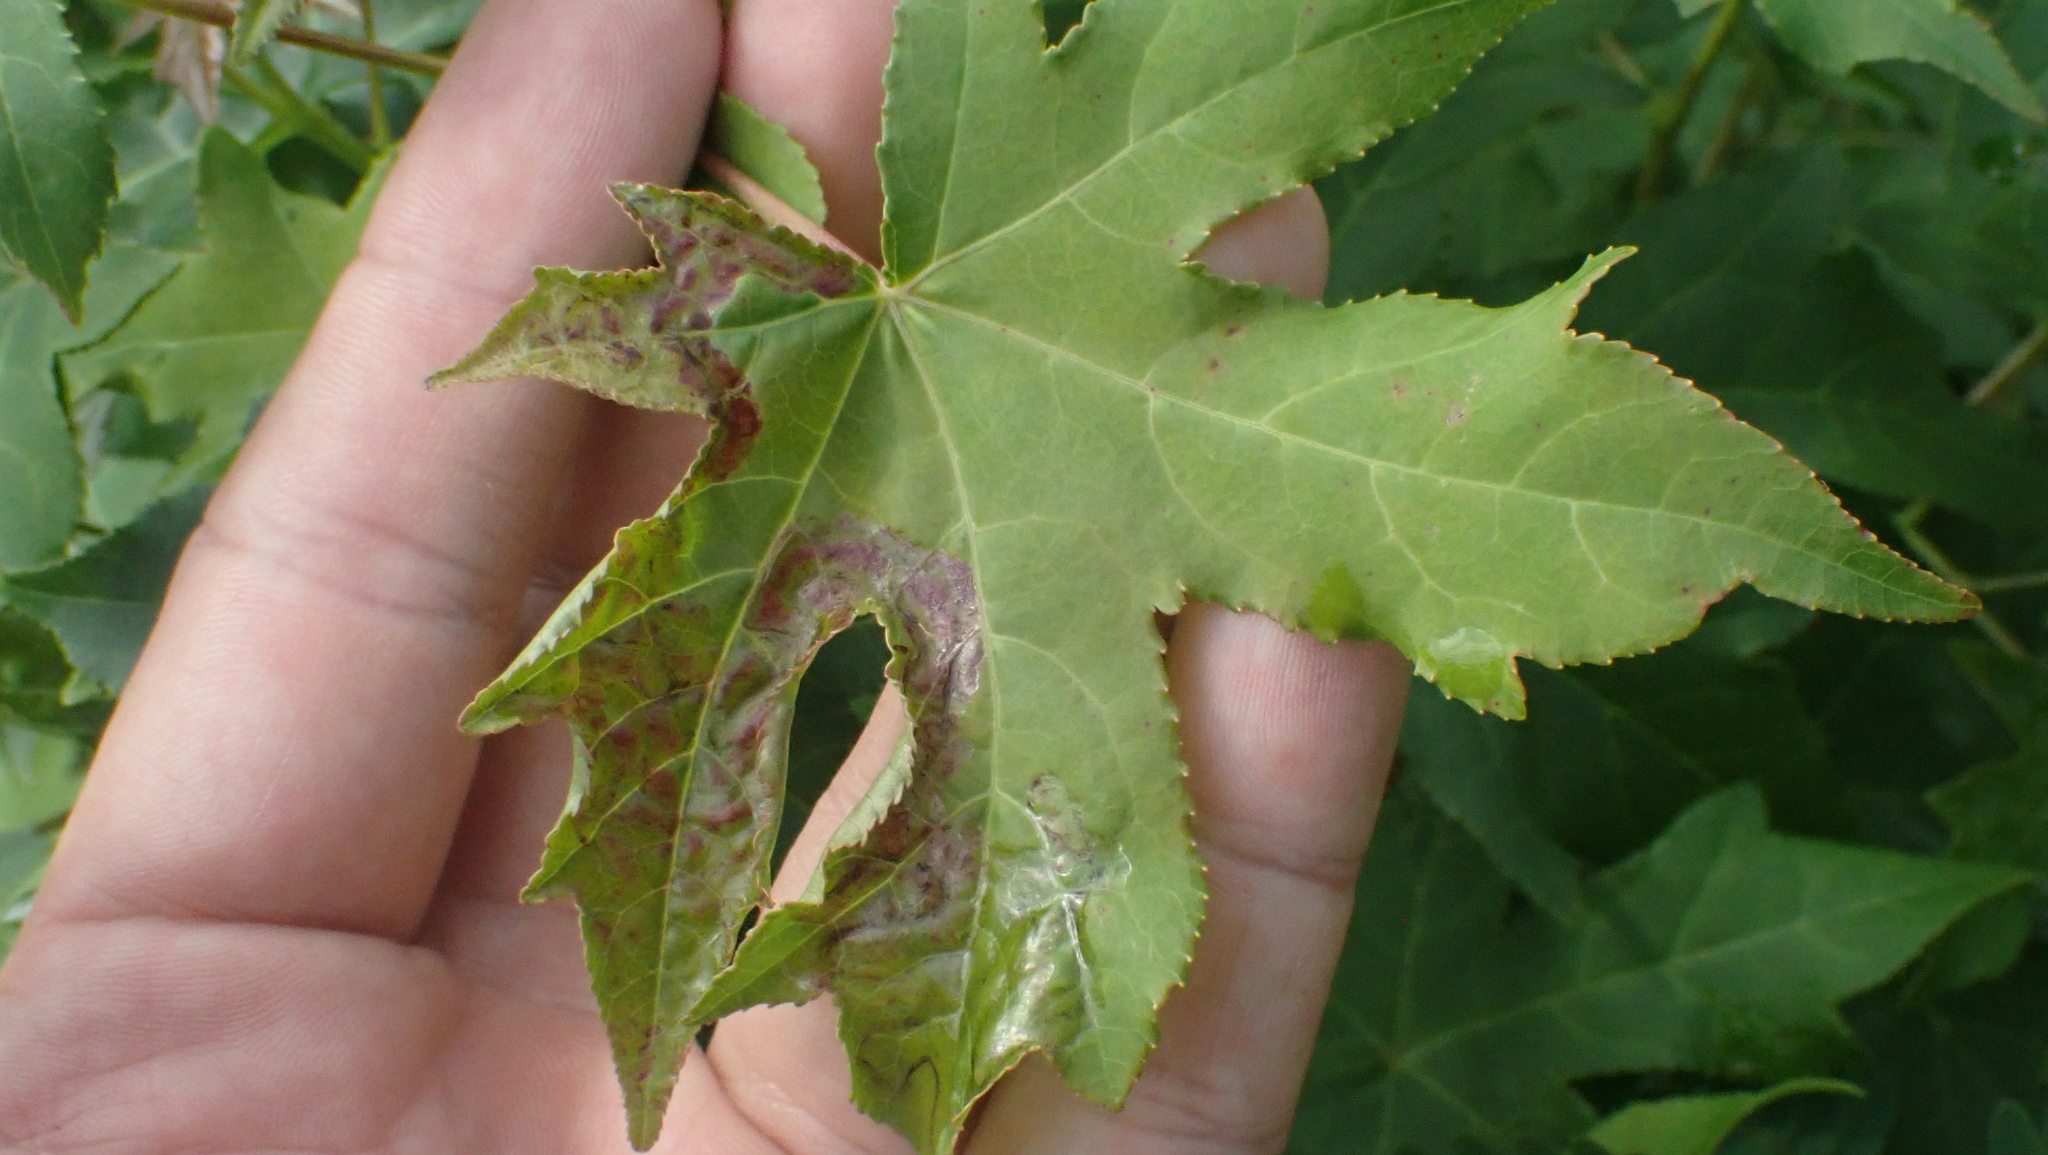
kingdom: Animalia
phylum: Arthropoda
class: Insecta
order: Lepidoptera
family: Gracillariidae
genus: Phyllocnistis
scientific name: Phyllocnistis liquidambarisella
